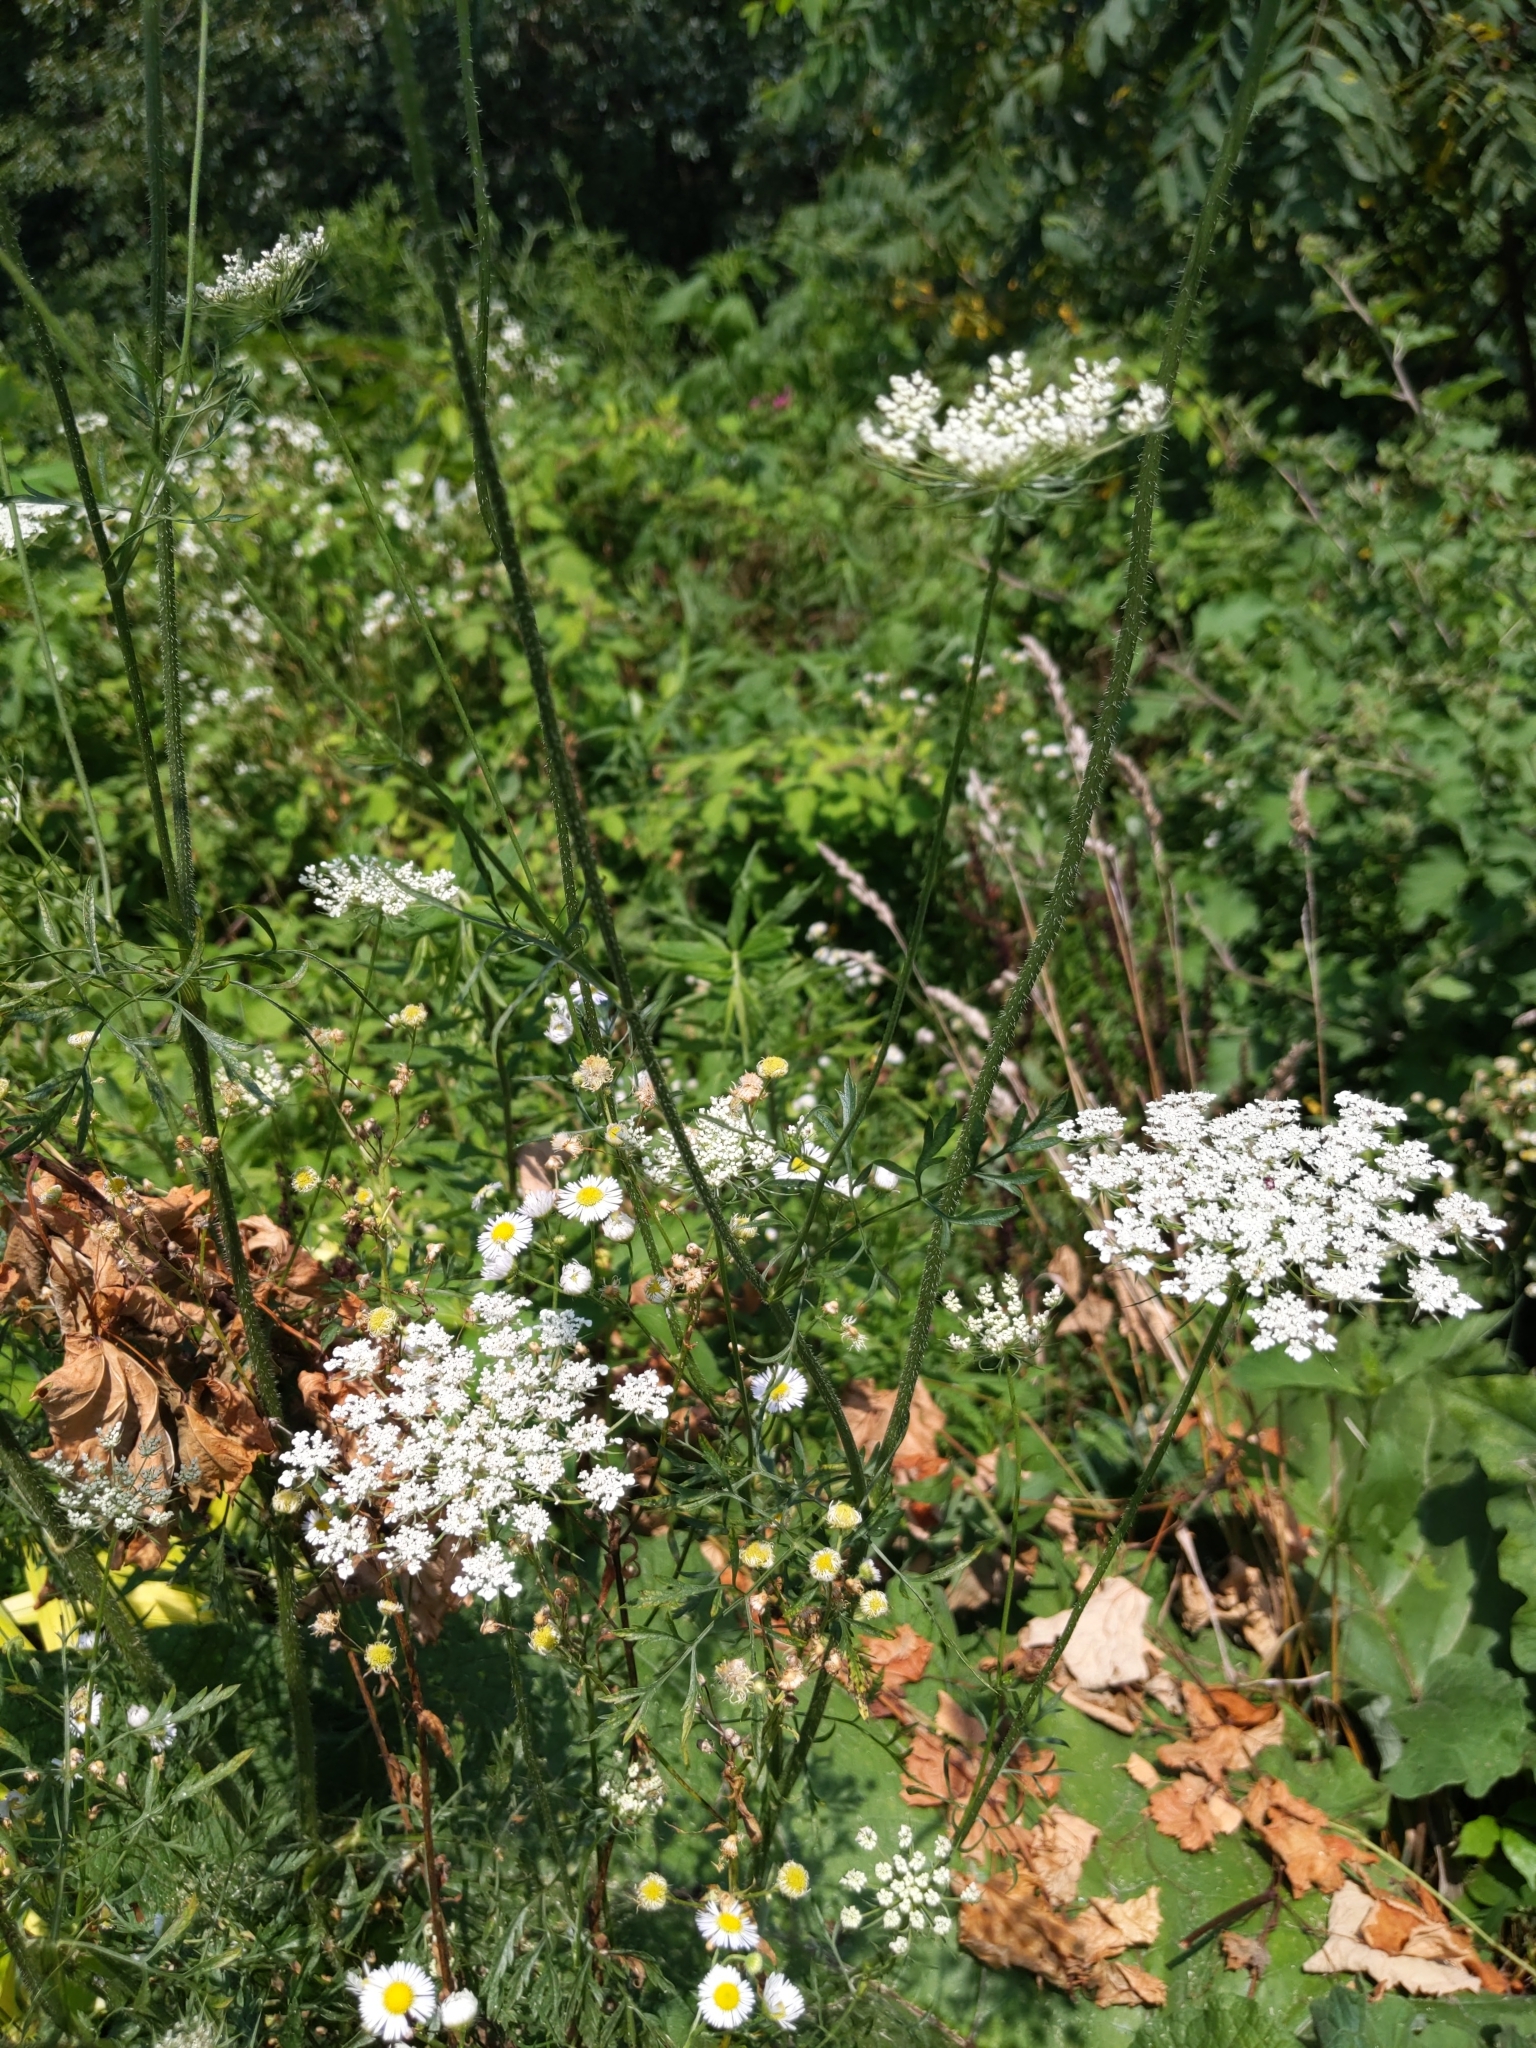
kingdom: Plantae
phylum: Tracheophyta
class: Magnoliopsida
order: Apiales
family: Apiaceae
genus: Daucus
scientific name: Daucus carota
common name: Wild carrot
